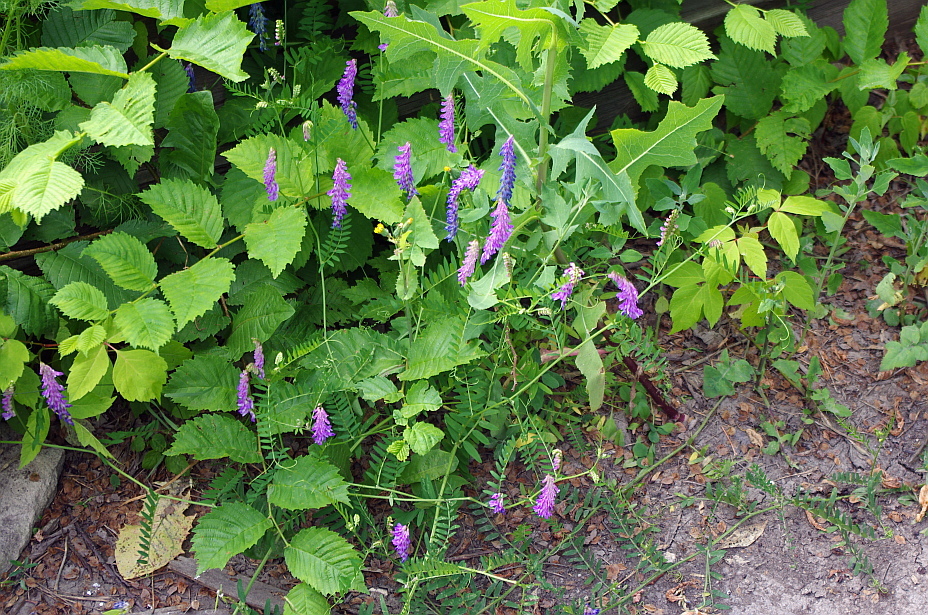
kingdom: Plantae
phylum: Tracheophyta
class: Magnoliopsida
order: Fabales
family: Fabaceae
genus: Vicia
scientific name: Vicia cracca
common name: Bird vetch
